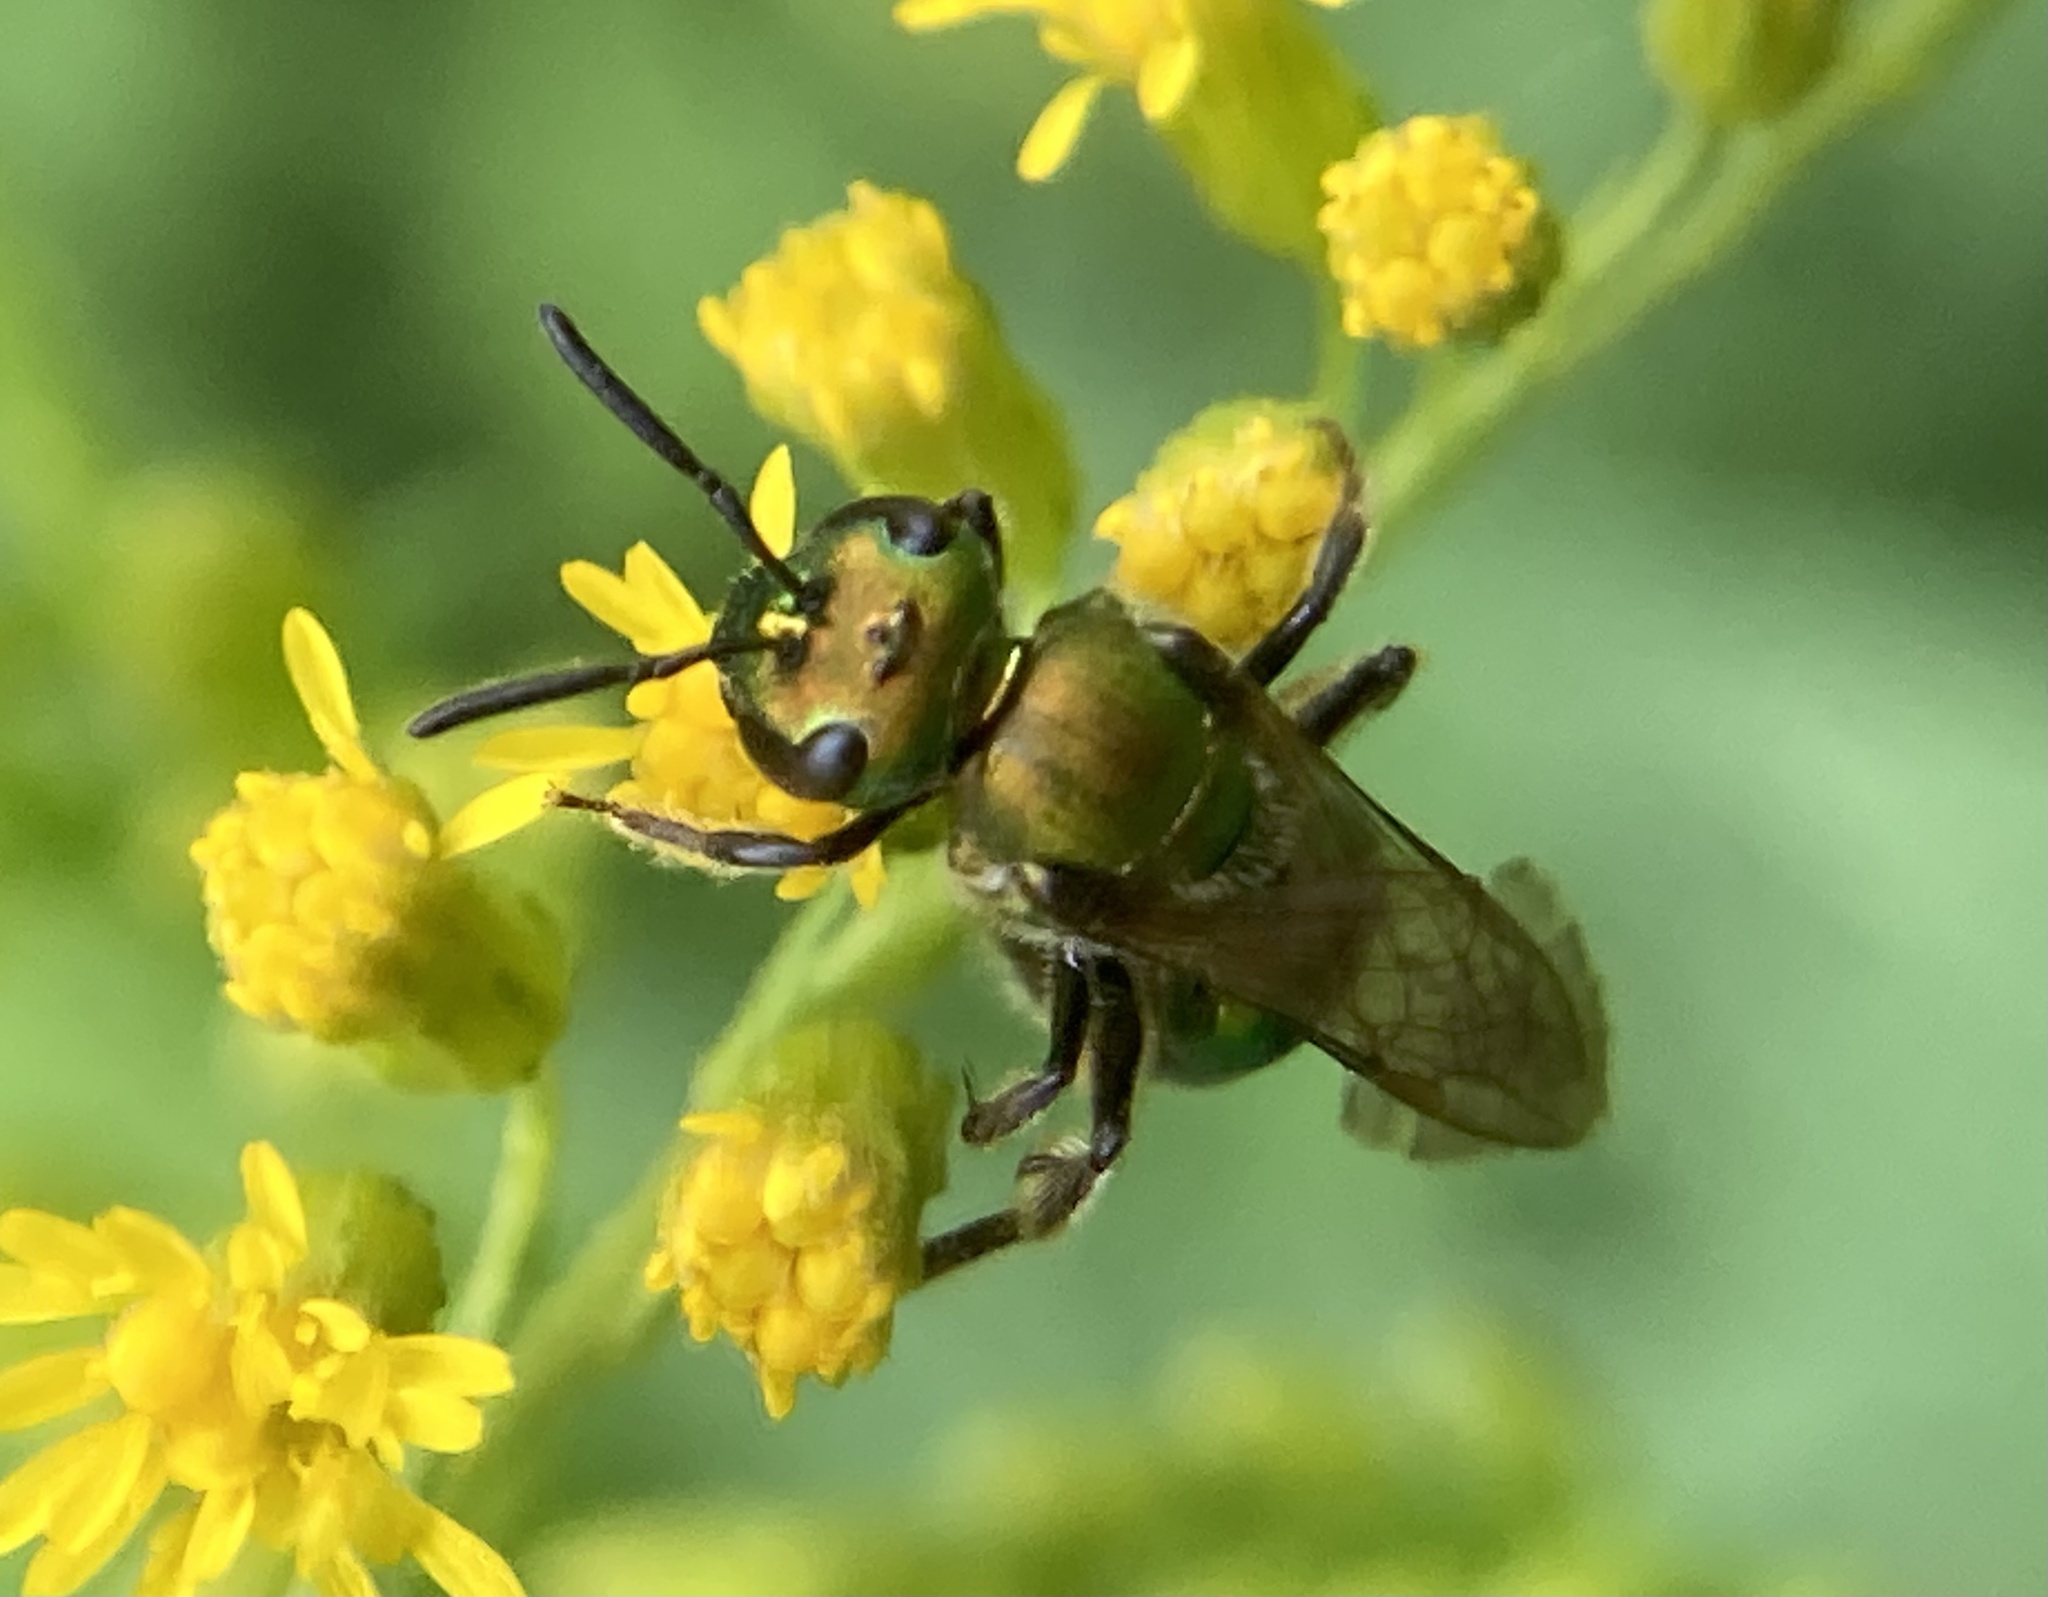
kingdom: Animalia
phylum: Arthropoda
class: Insecta
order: Hymenoptera
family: Halictidae
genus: Augochlora
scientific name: Augochlora pura
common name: Pure green sweat bee
